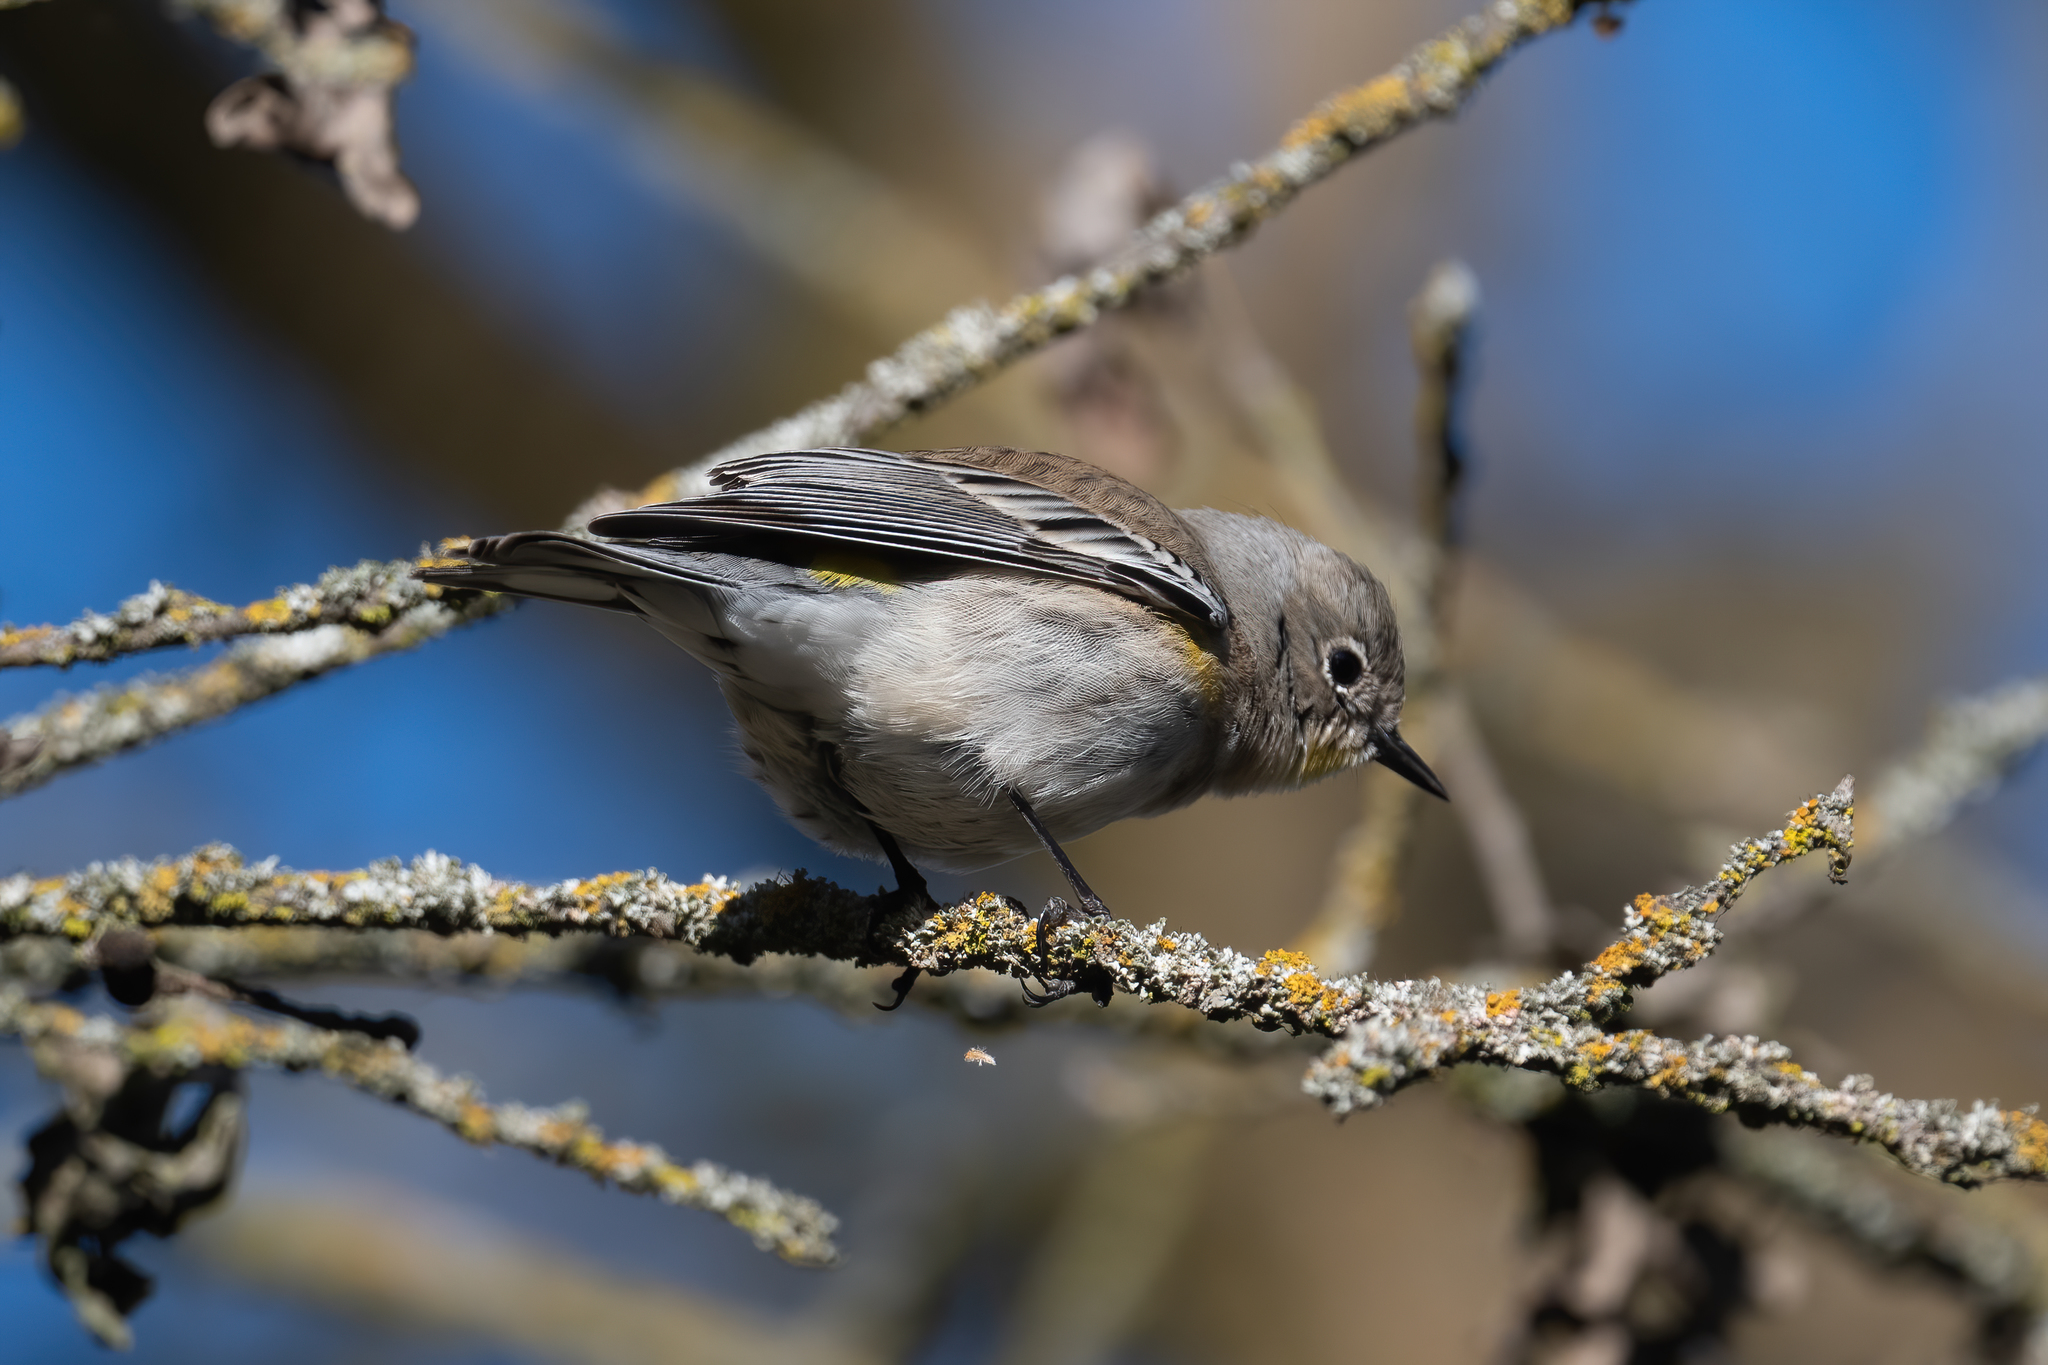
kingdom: Animalia
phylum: Chordata
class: Aves
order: Passeriformes
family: Parulidae
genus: Setophaga
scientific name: Setophaga coronata
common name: Myrtle warbler
